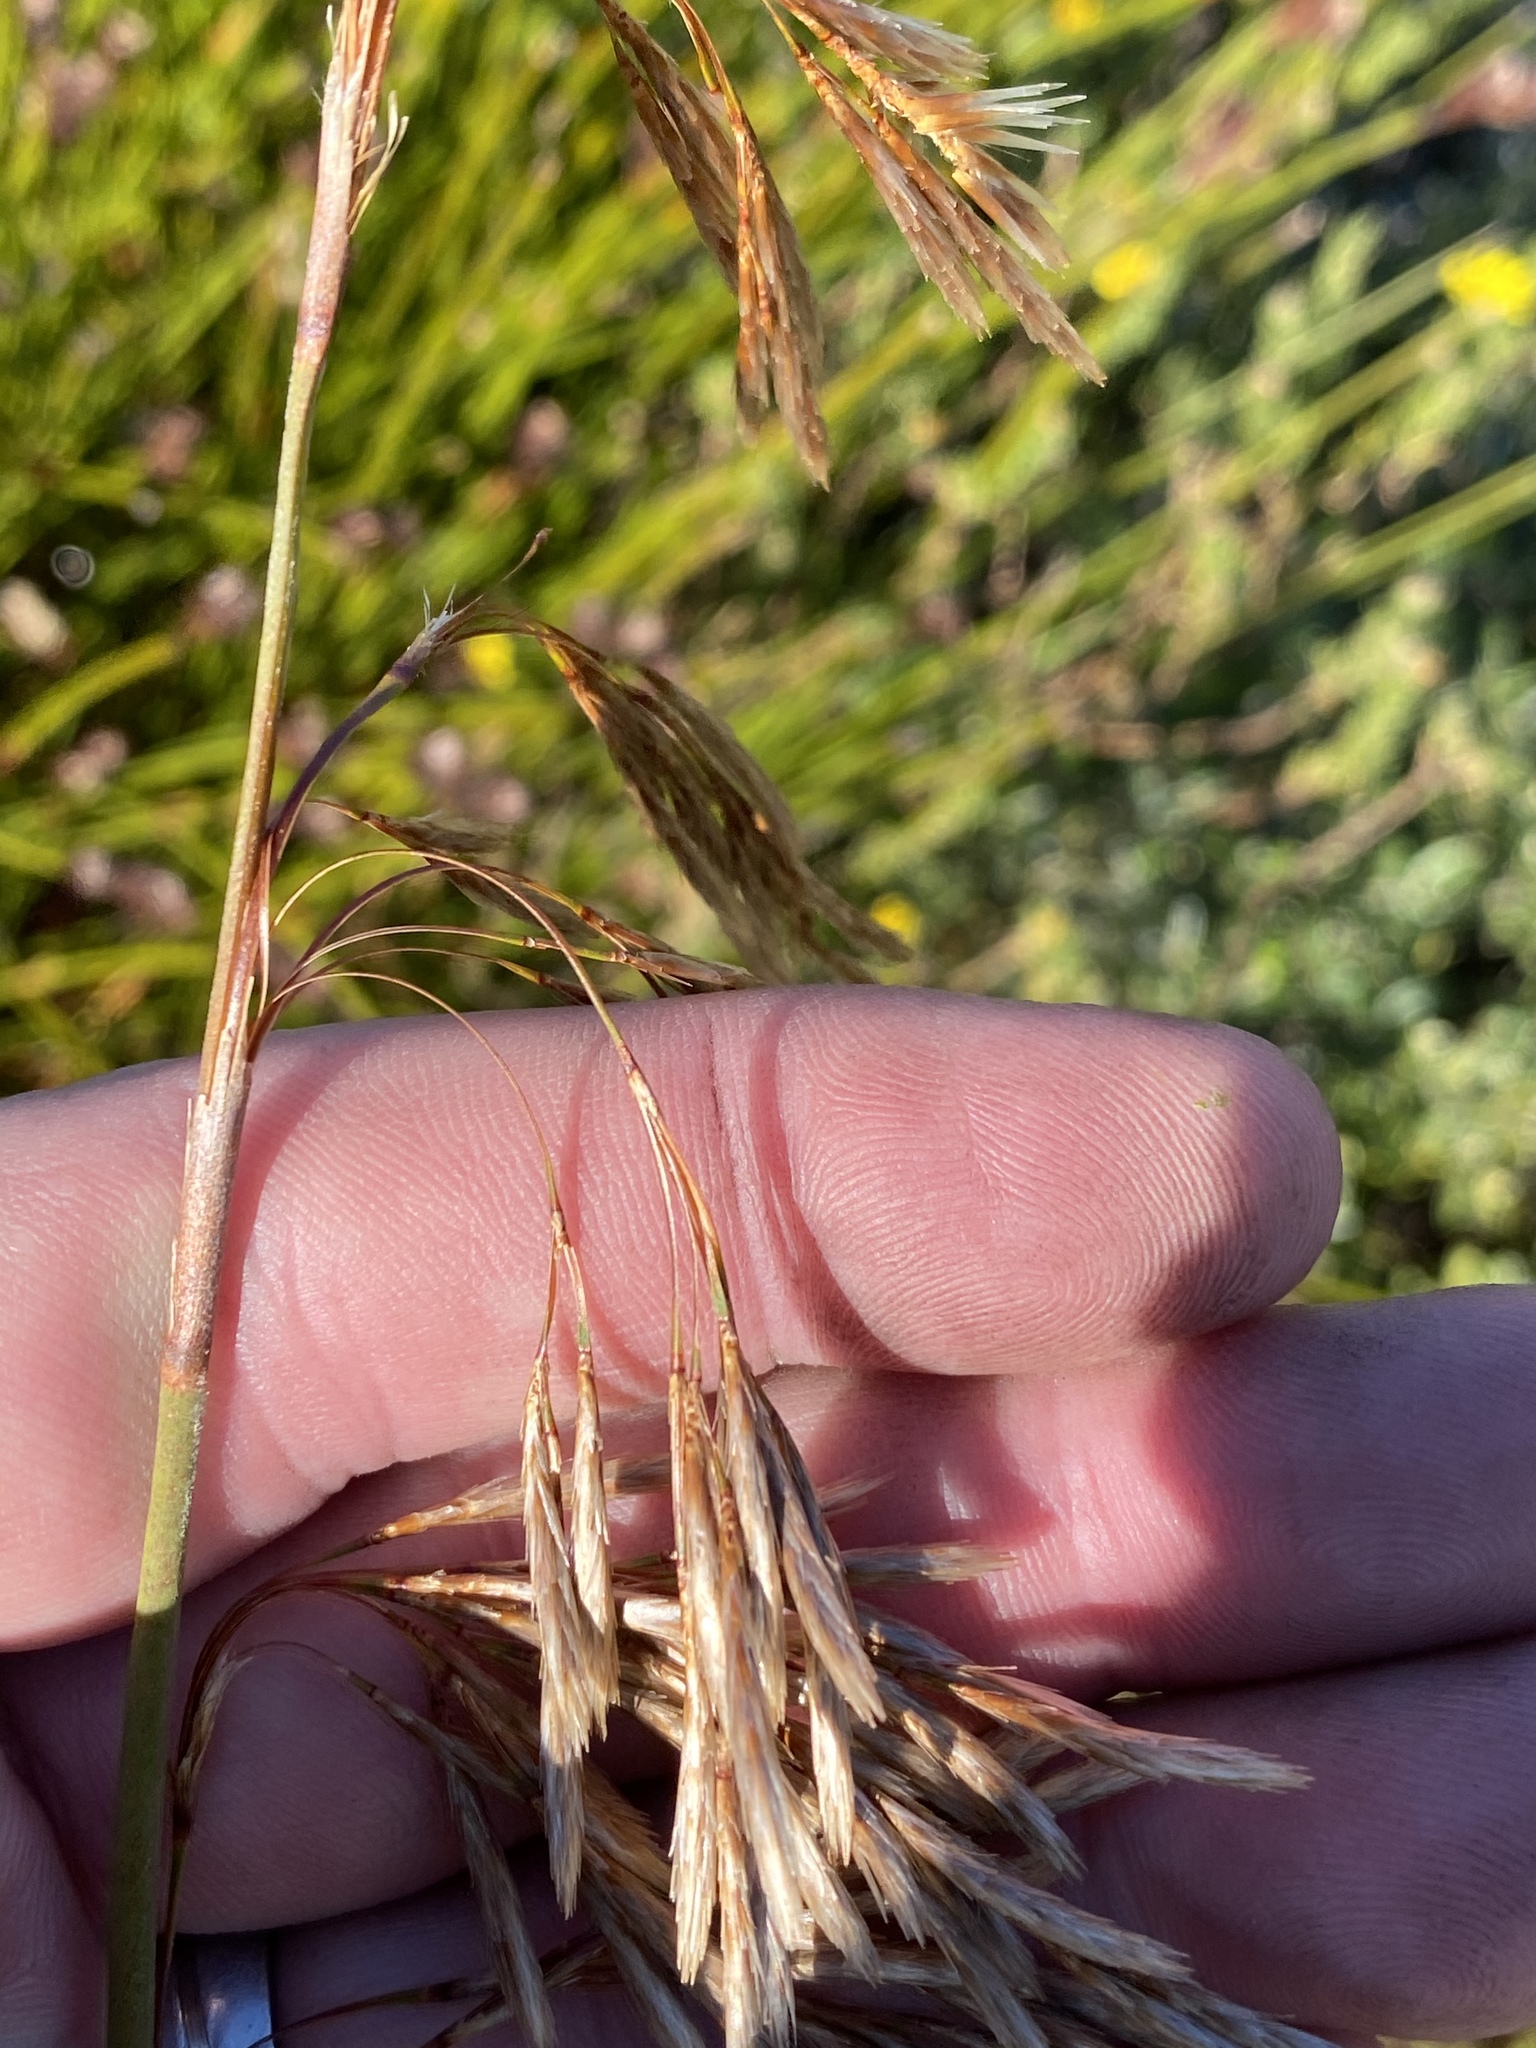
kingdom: Plantae
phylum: Tracheophyta
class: Liliopsida
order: Poales
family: Restionaceae
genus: Thamnochortus
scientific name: Thamnochortus cinereus
